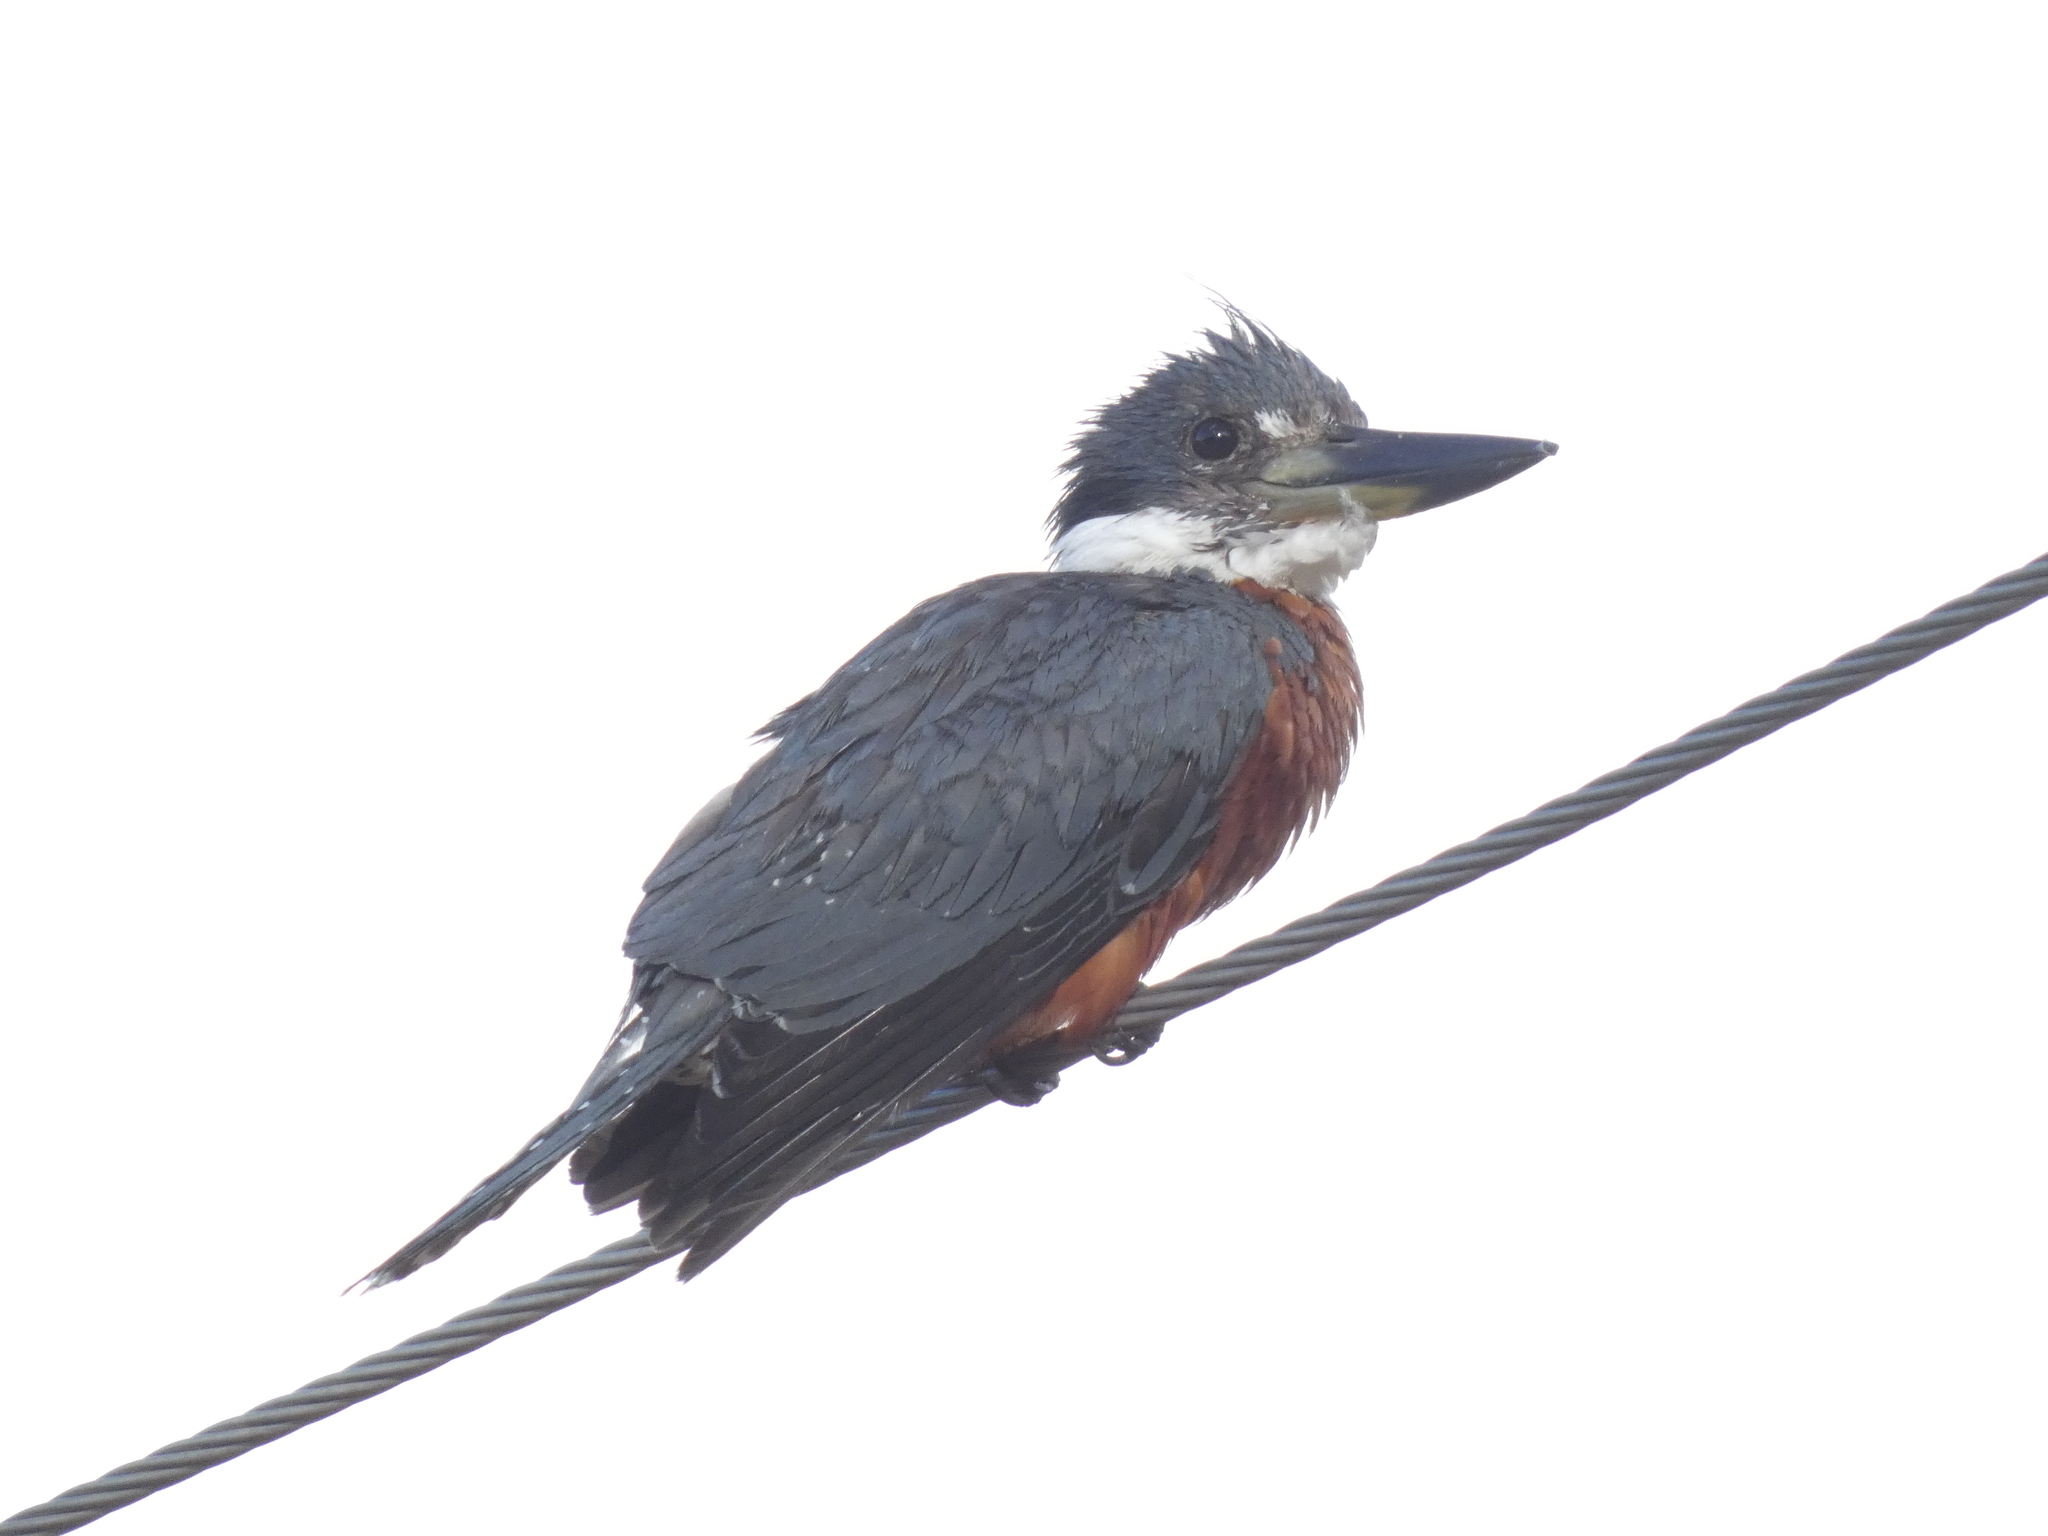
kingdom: Animalia
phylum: Chordata
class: Aves
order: Coraciiformes
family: Alcedinidae
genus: Megaceryle
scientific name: Megaceryle torquata
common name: Ringed kingfisher
